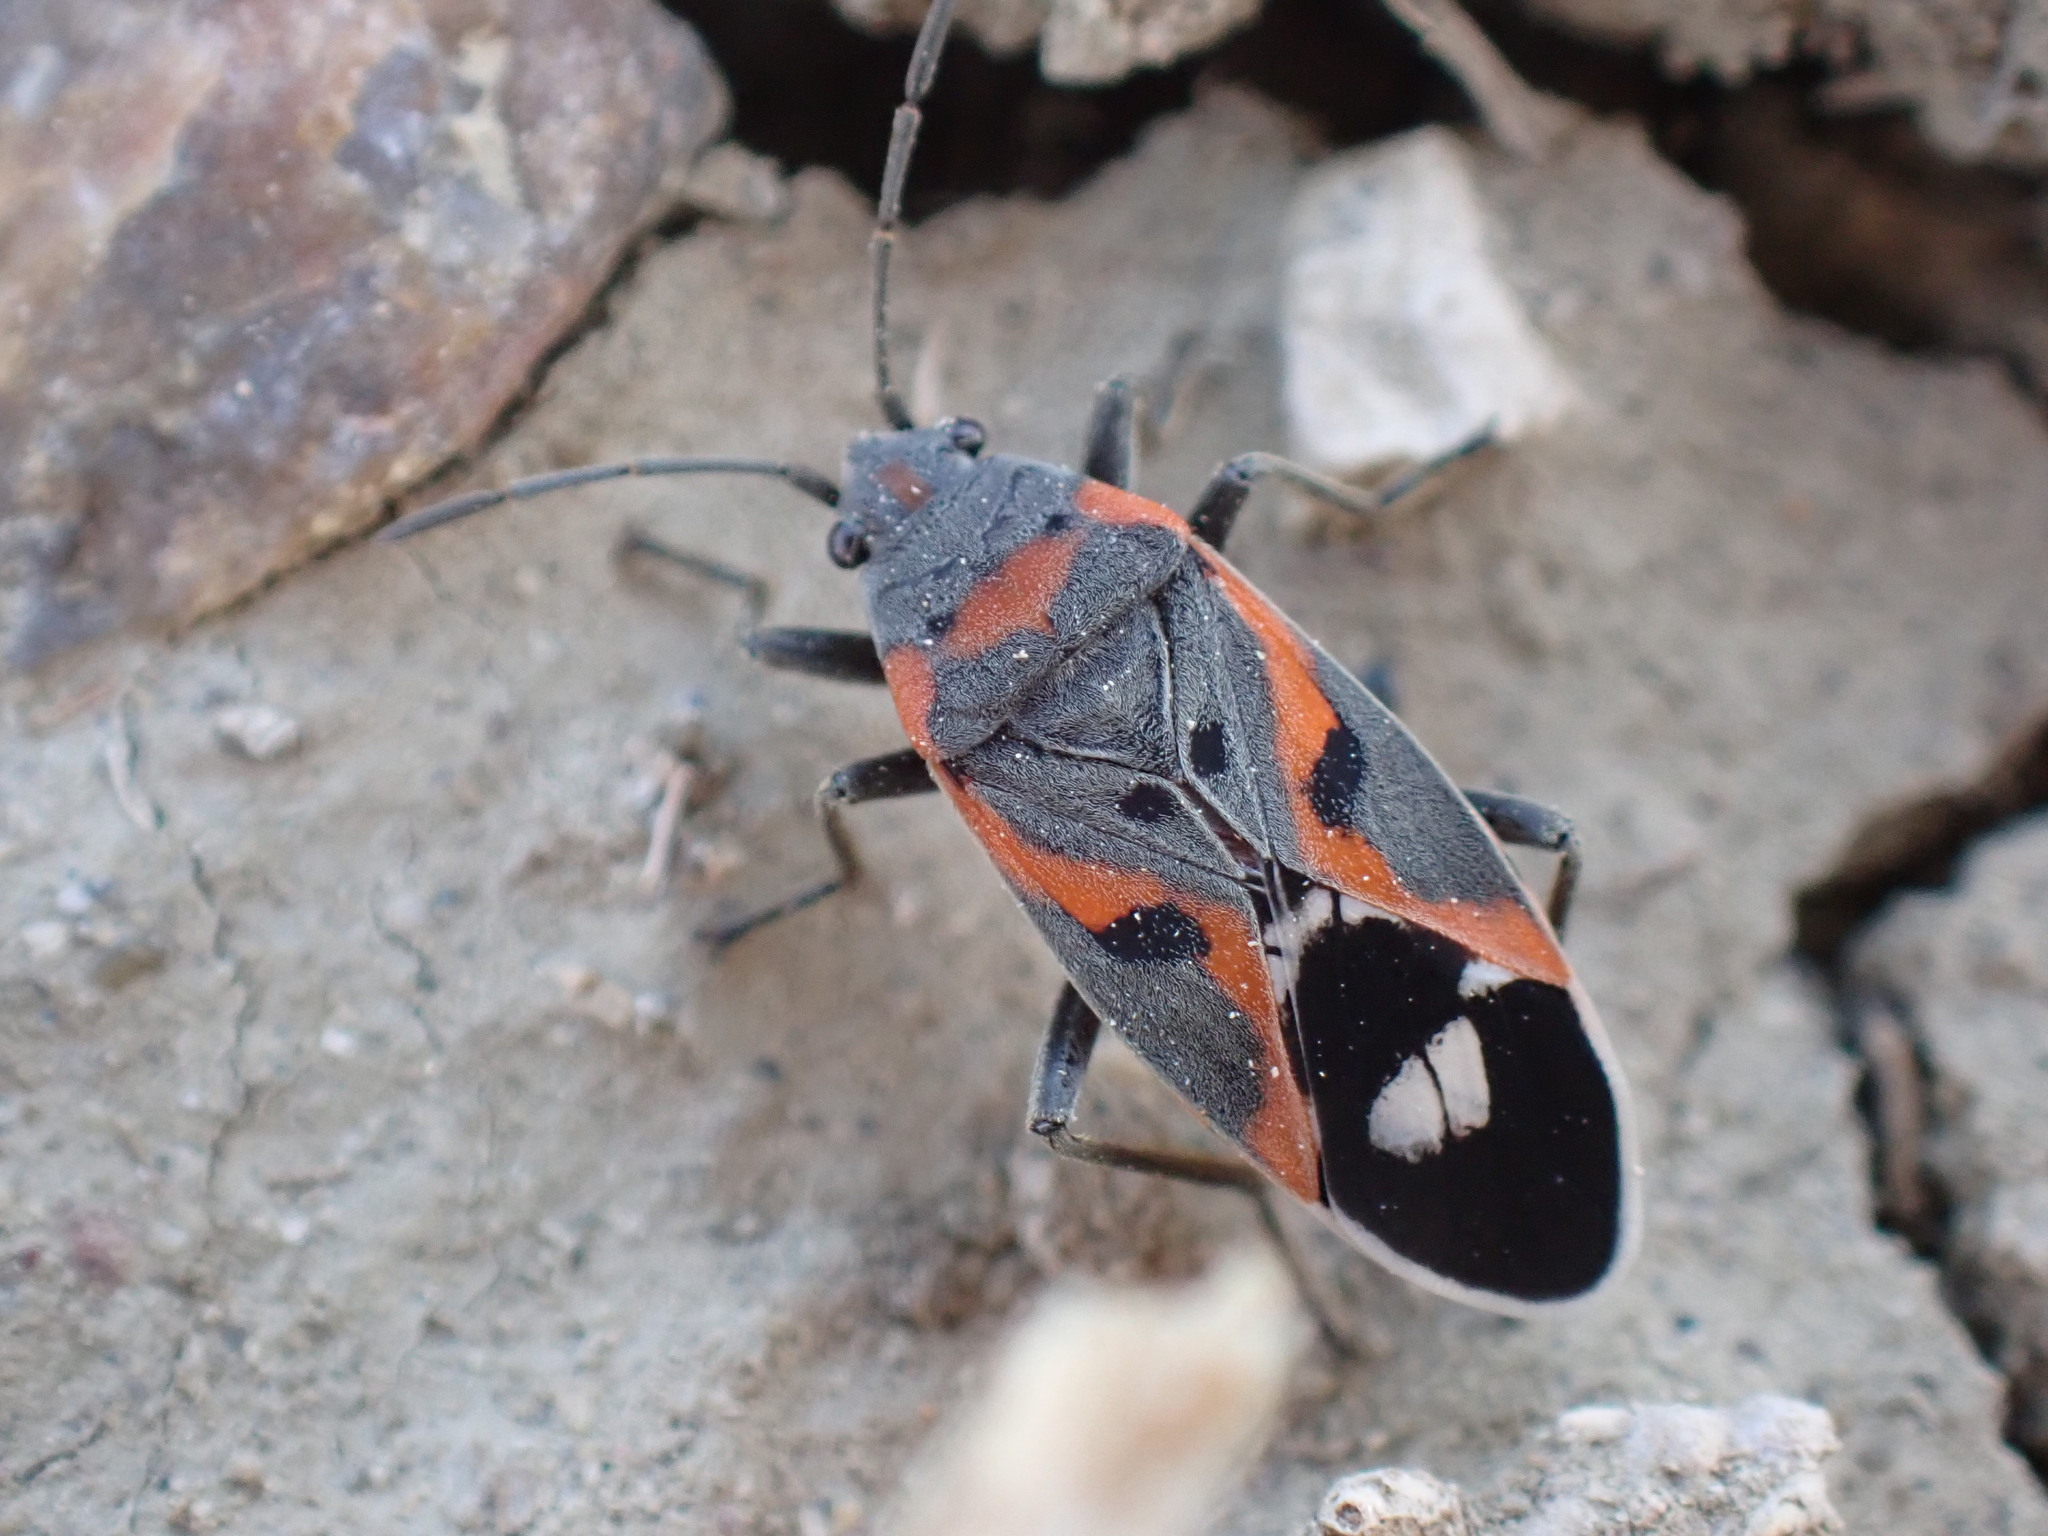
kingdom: Animalia
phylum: Arthropoda
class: Insecta
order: Hemiptera
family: Lygaeidae
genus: Lygaeus
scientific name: Lygaeus kalmii
